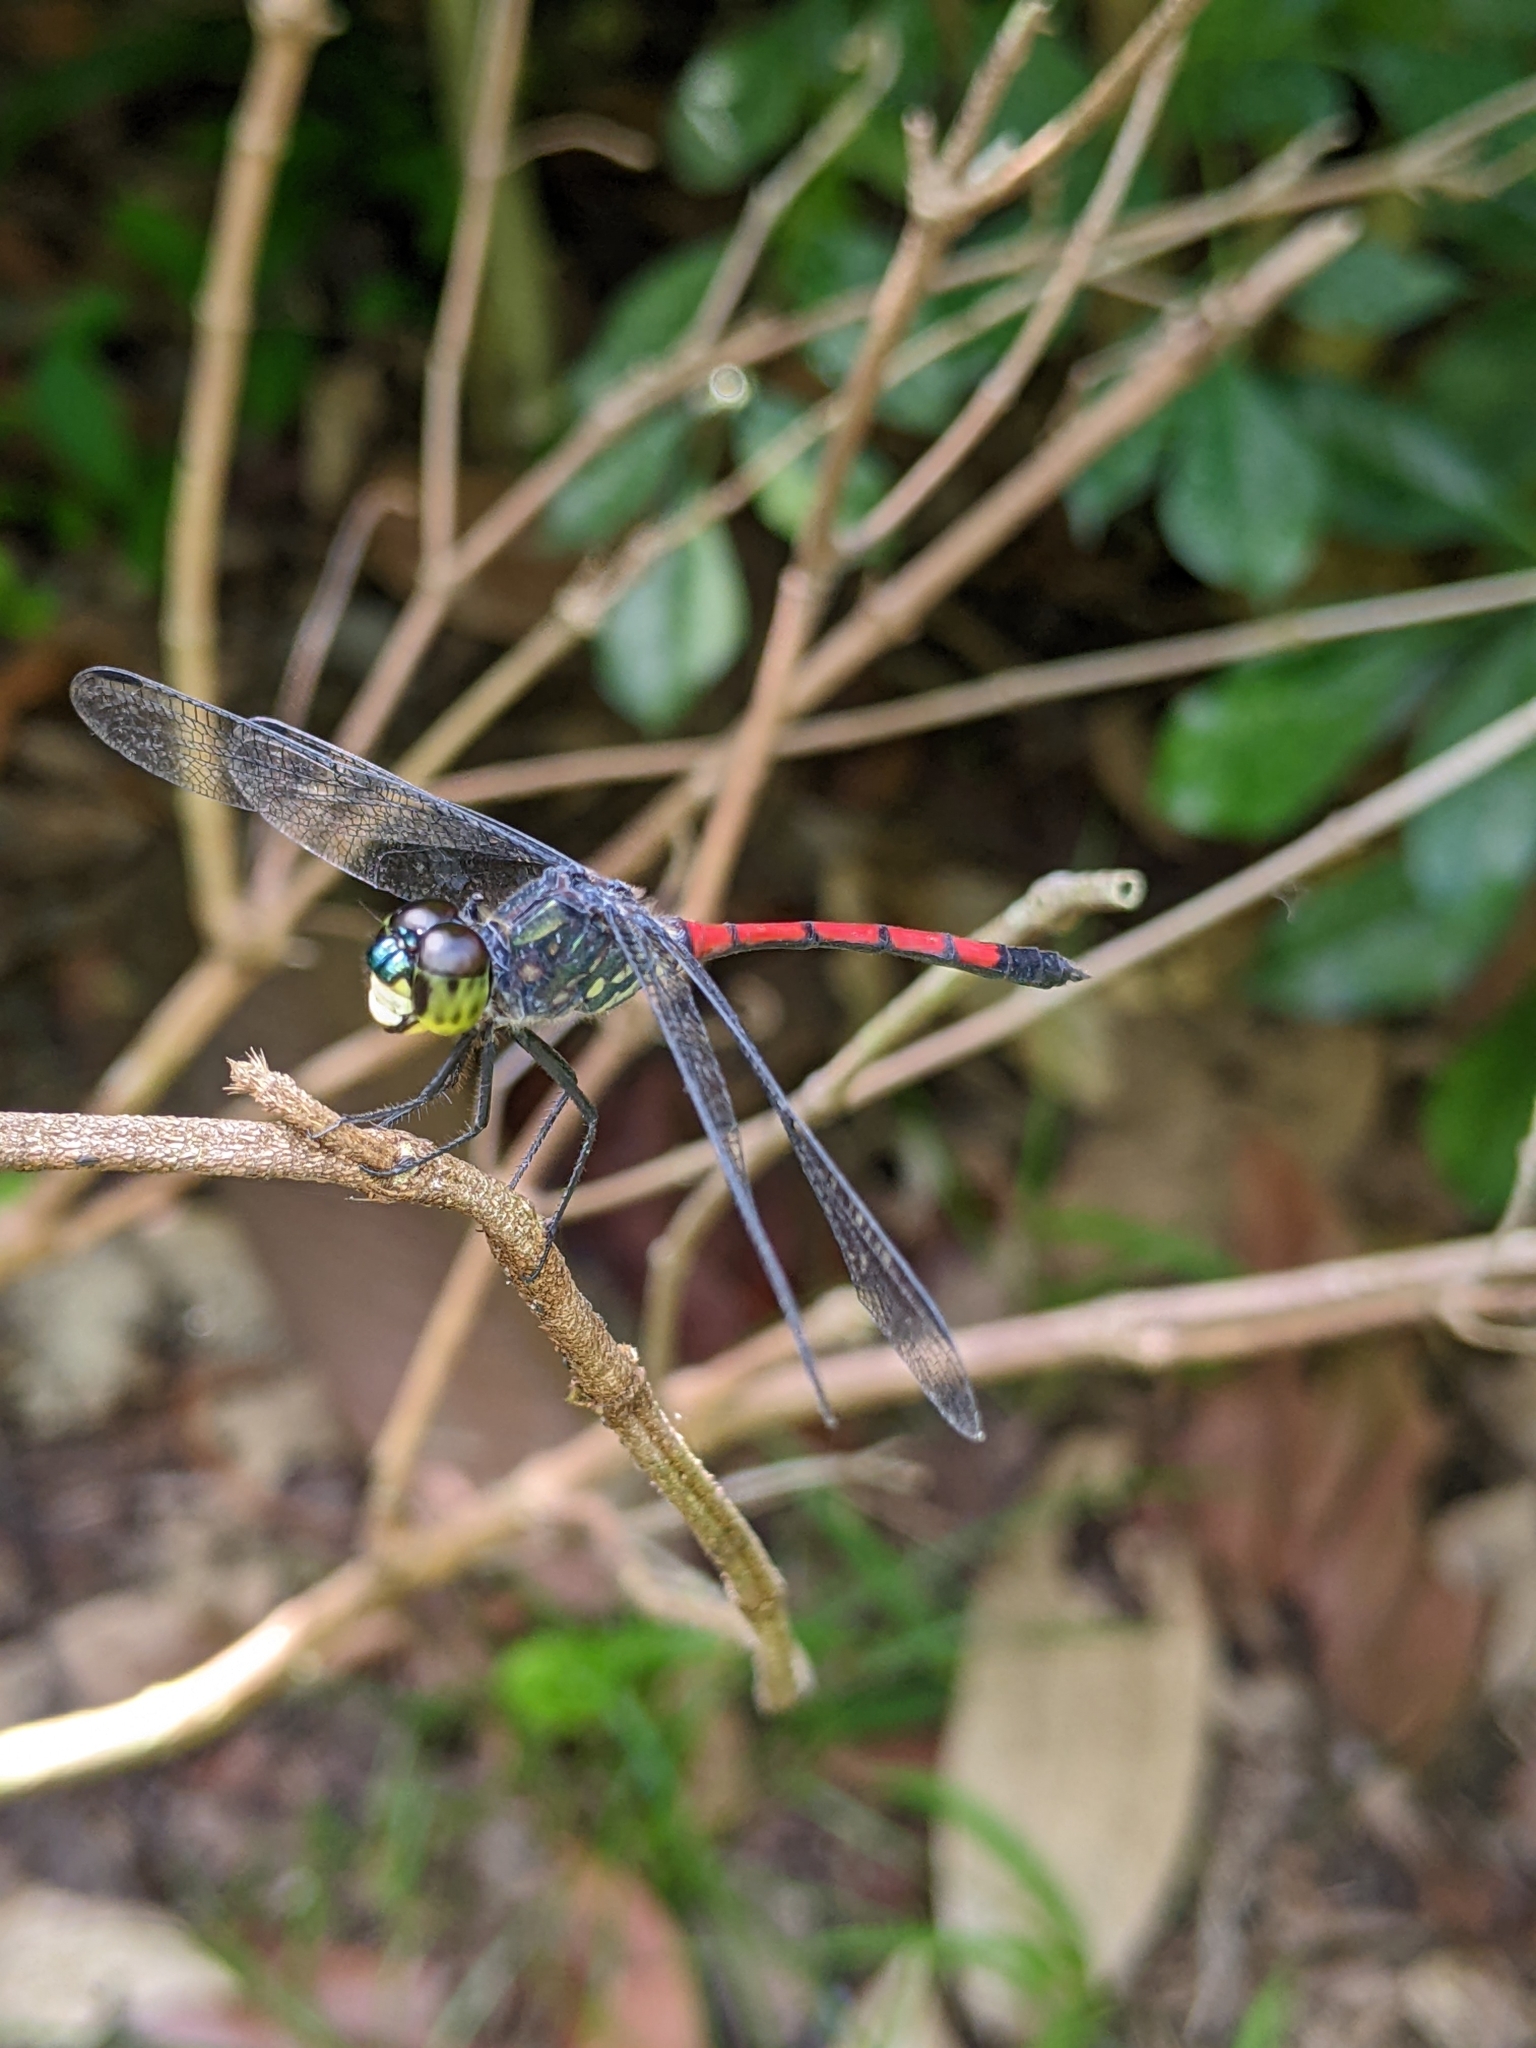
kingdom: Animalia
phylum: Arthropoda
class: Insecta
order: Odonata
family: Libellulidae
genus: Agrionoptera
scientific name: Agrionoptera insignis
